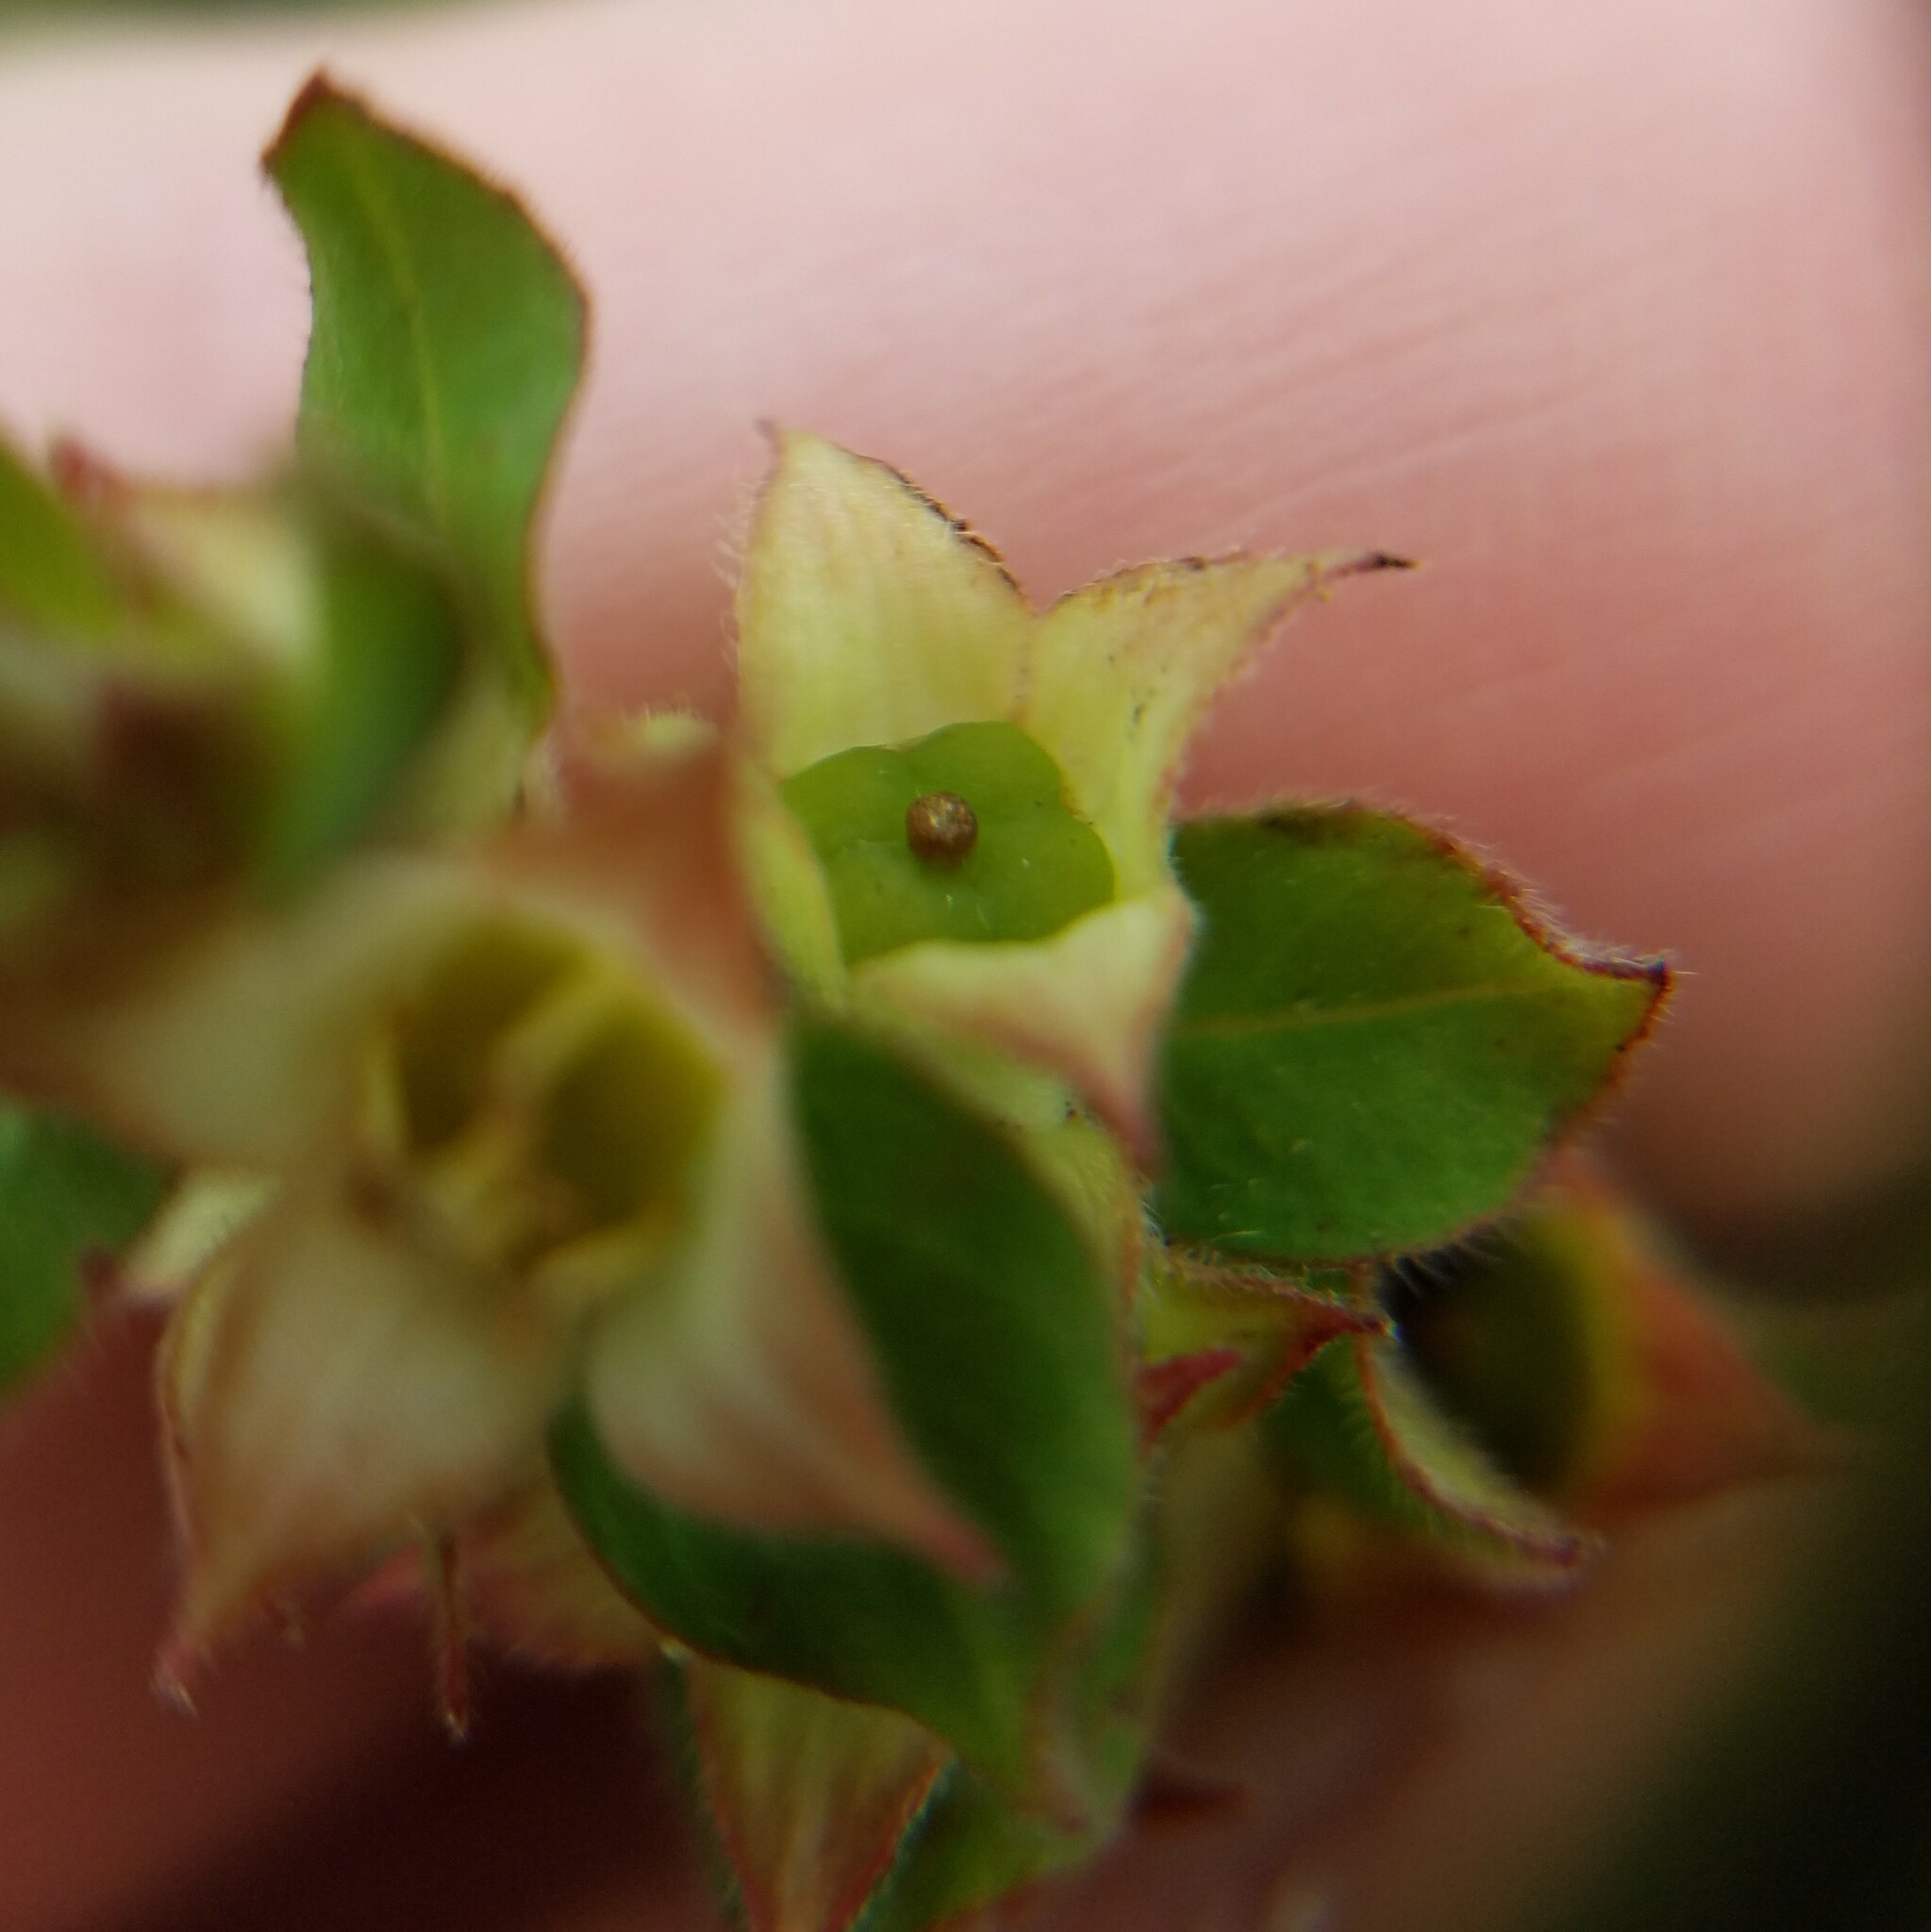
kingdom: Plantae
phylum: Tracheophyta
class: Magnoliopsida
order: Myrtales
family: Onagraceae
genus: Ludwigia
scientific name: Ludwigia pilosa
